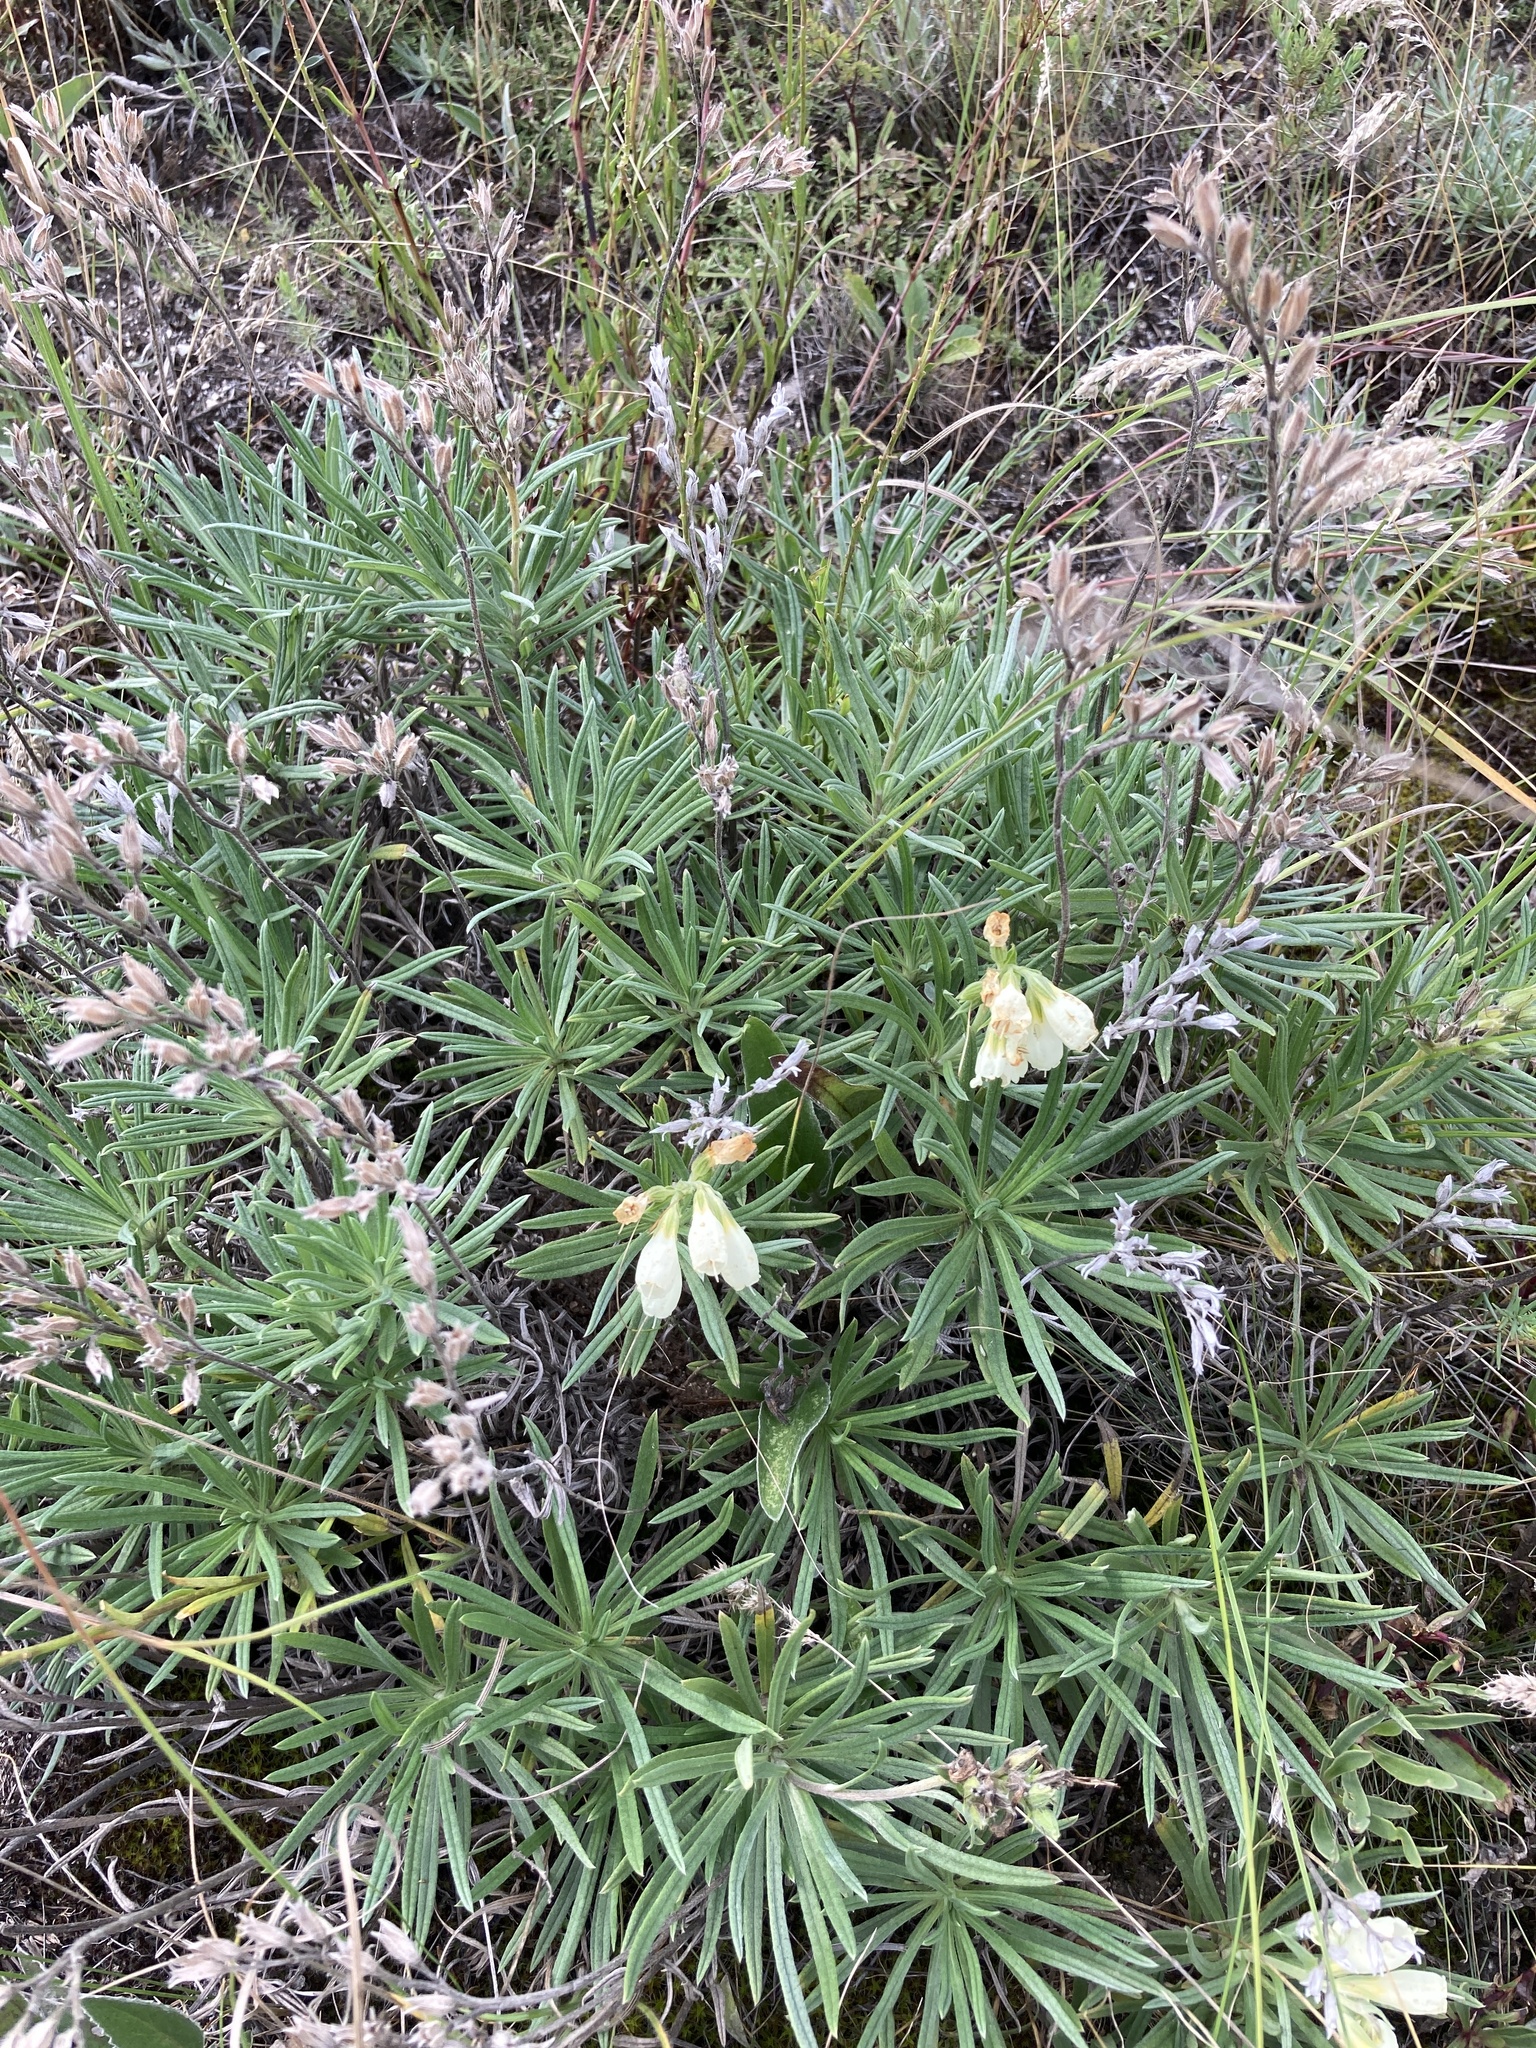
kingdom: Plantae
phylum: Tracheophyta
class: Magnoliopsida
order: Boraginales
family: Boraginaceae
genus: Onosma
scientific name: Onosma simplicissima
